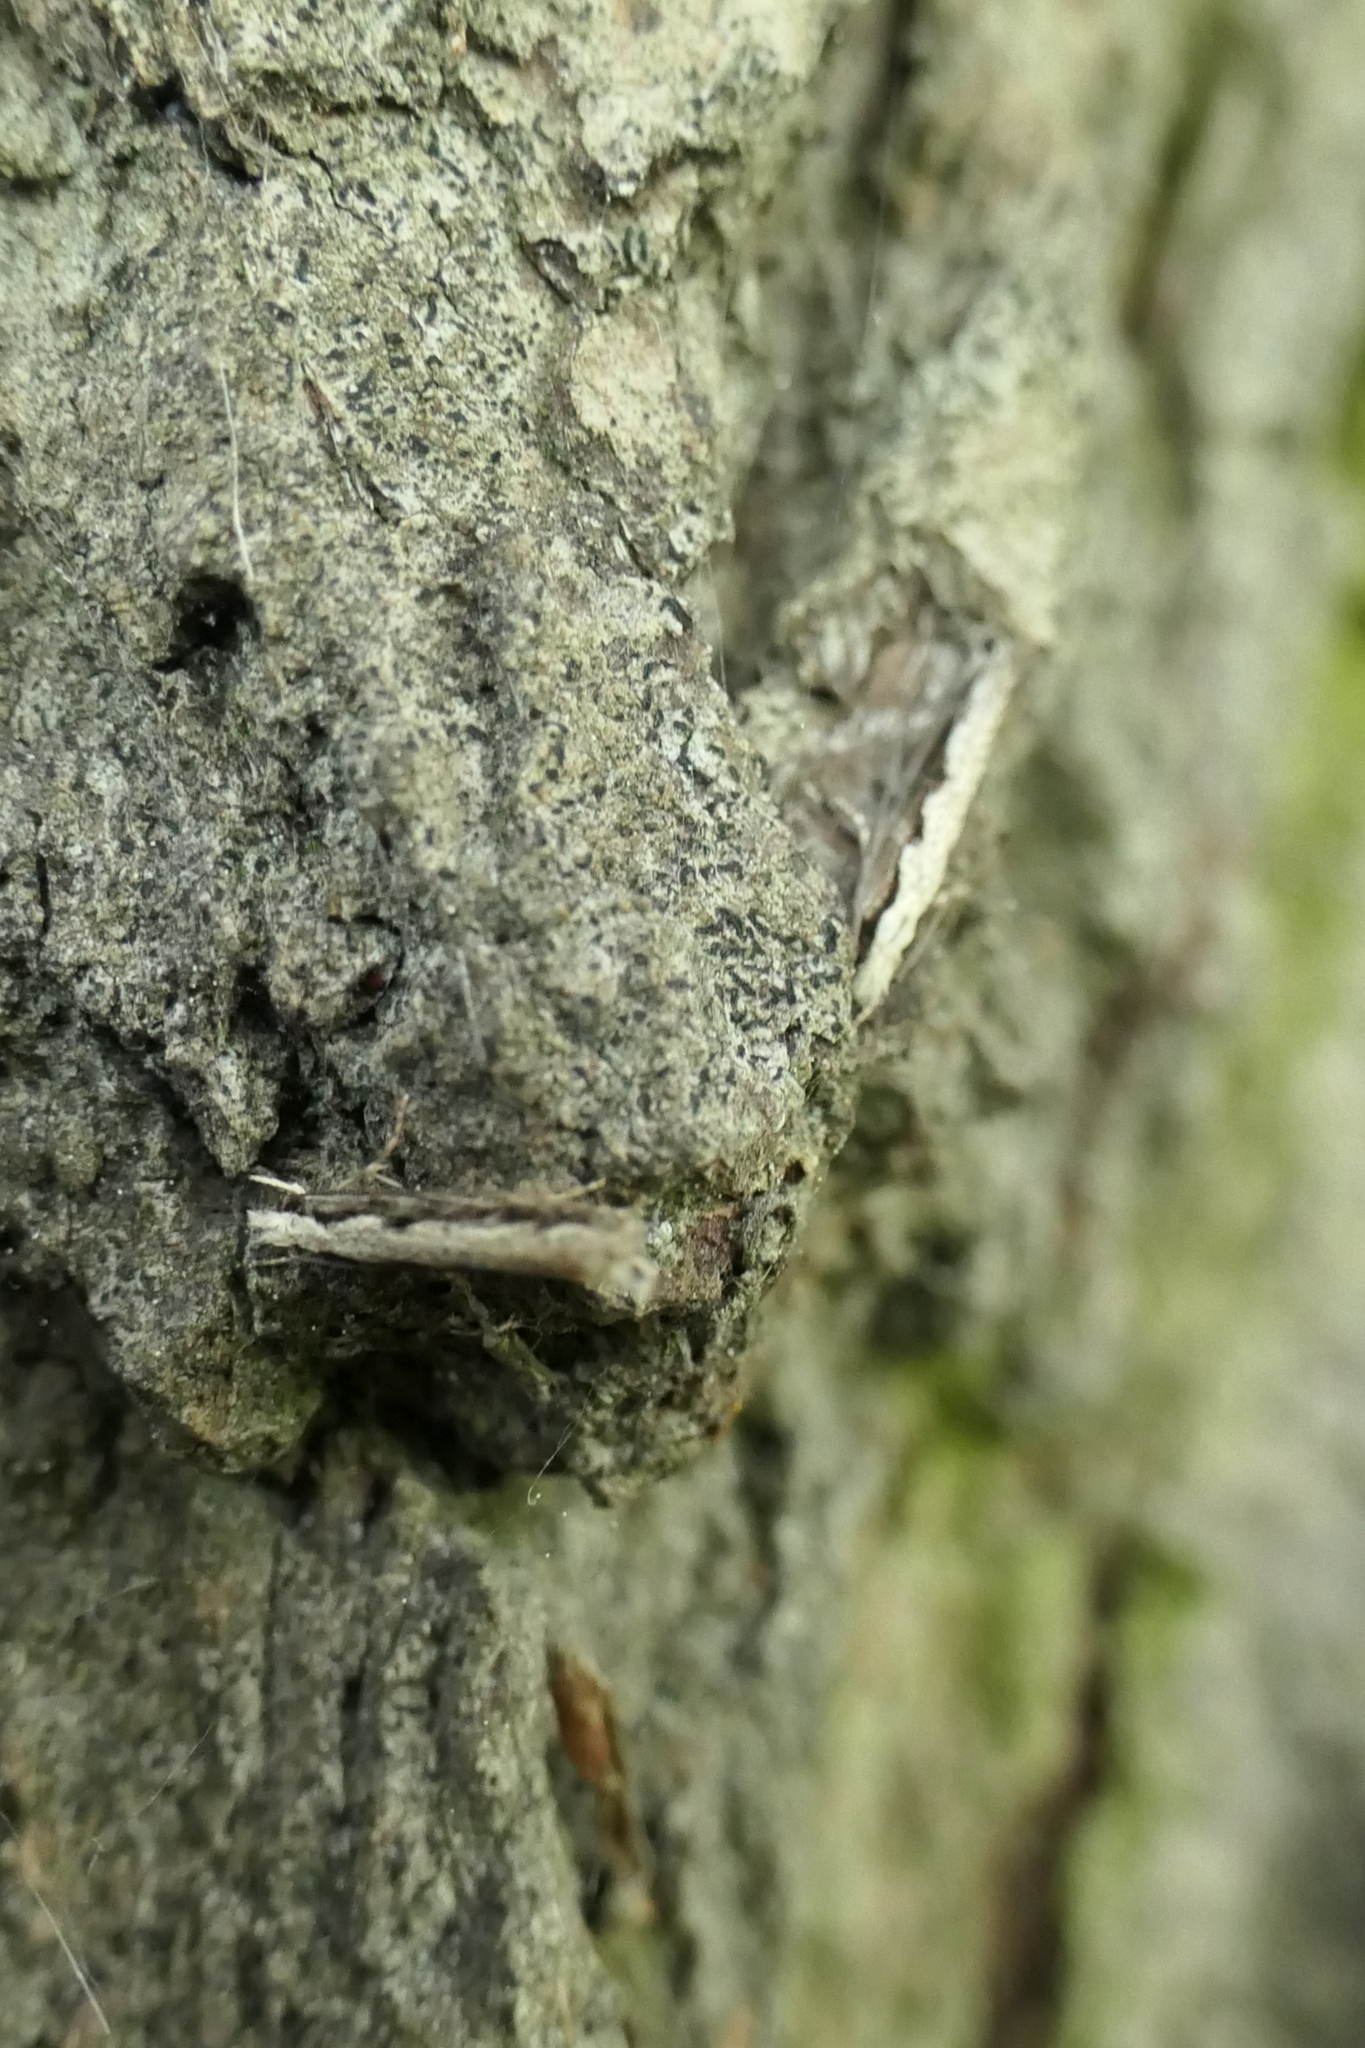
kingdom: Animalia
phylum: Arthropoda
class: Insecta
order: Lepidoptera
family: Tineidae
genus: Erechthias
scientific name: Erechthias fulguritella
